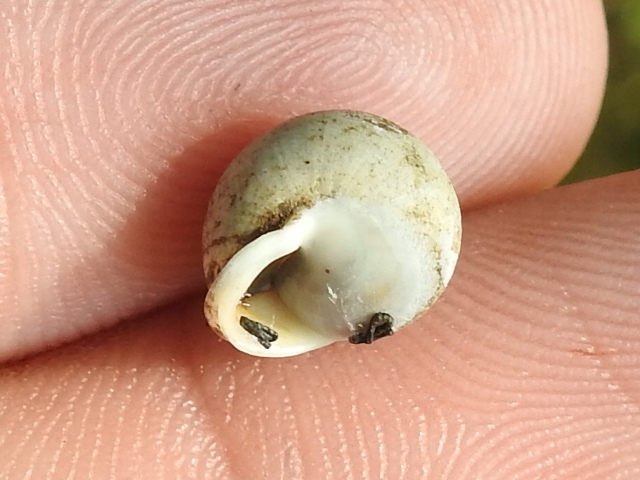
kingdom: Animalia
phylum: Mollusca
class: Gastropoda
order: Cycloneritida
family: Helicinidae
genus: Helicina
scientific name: Helicina orbiculata
